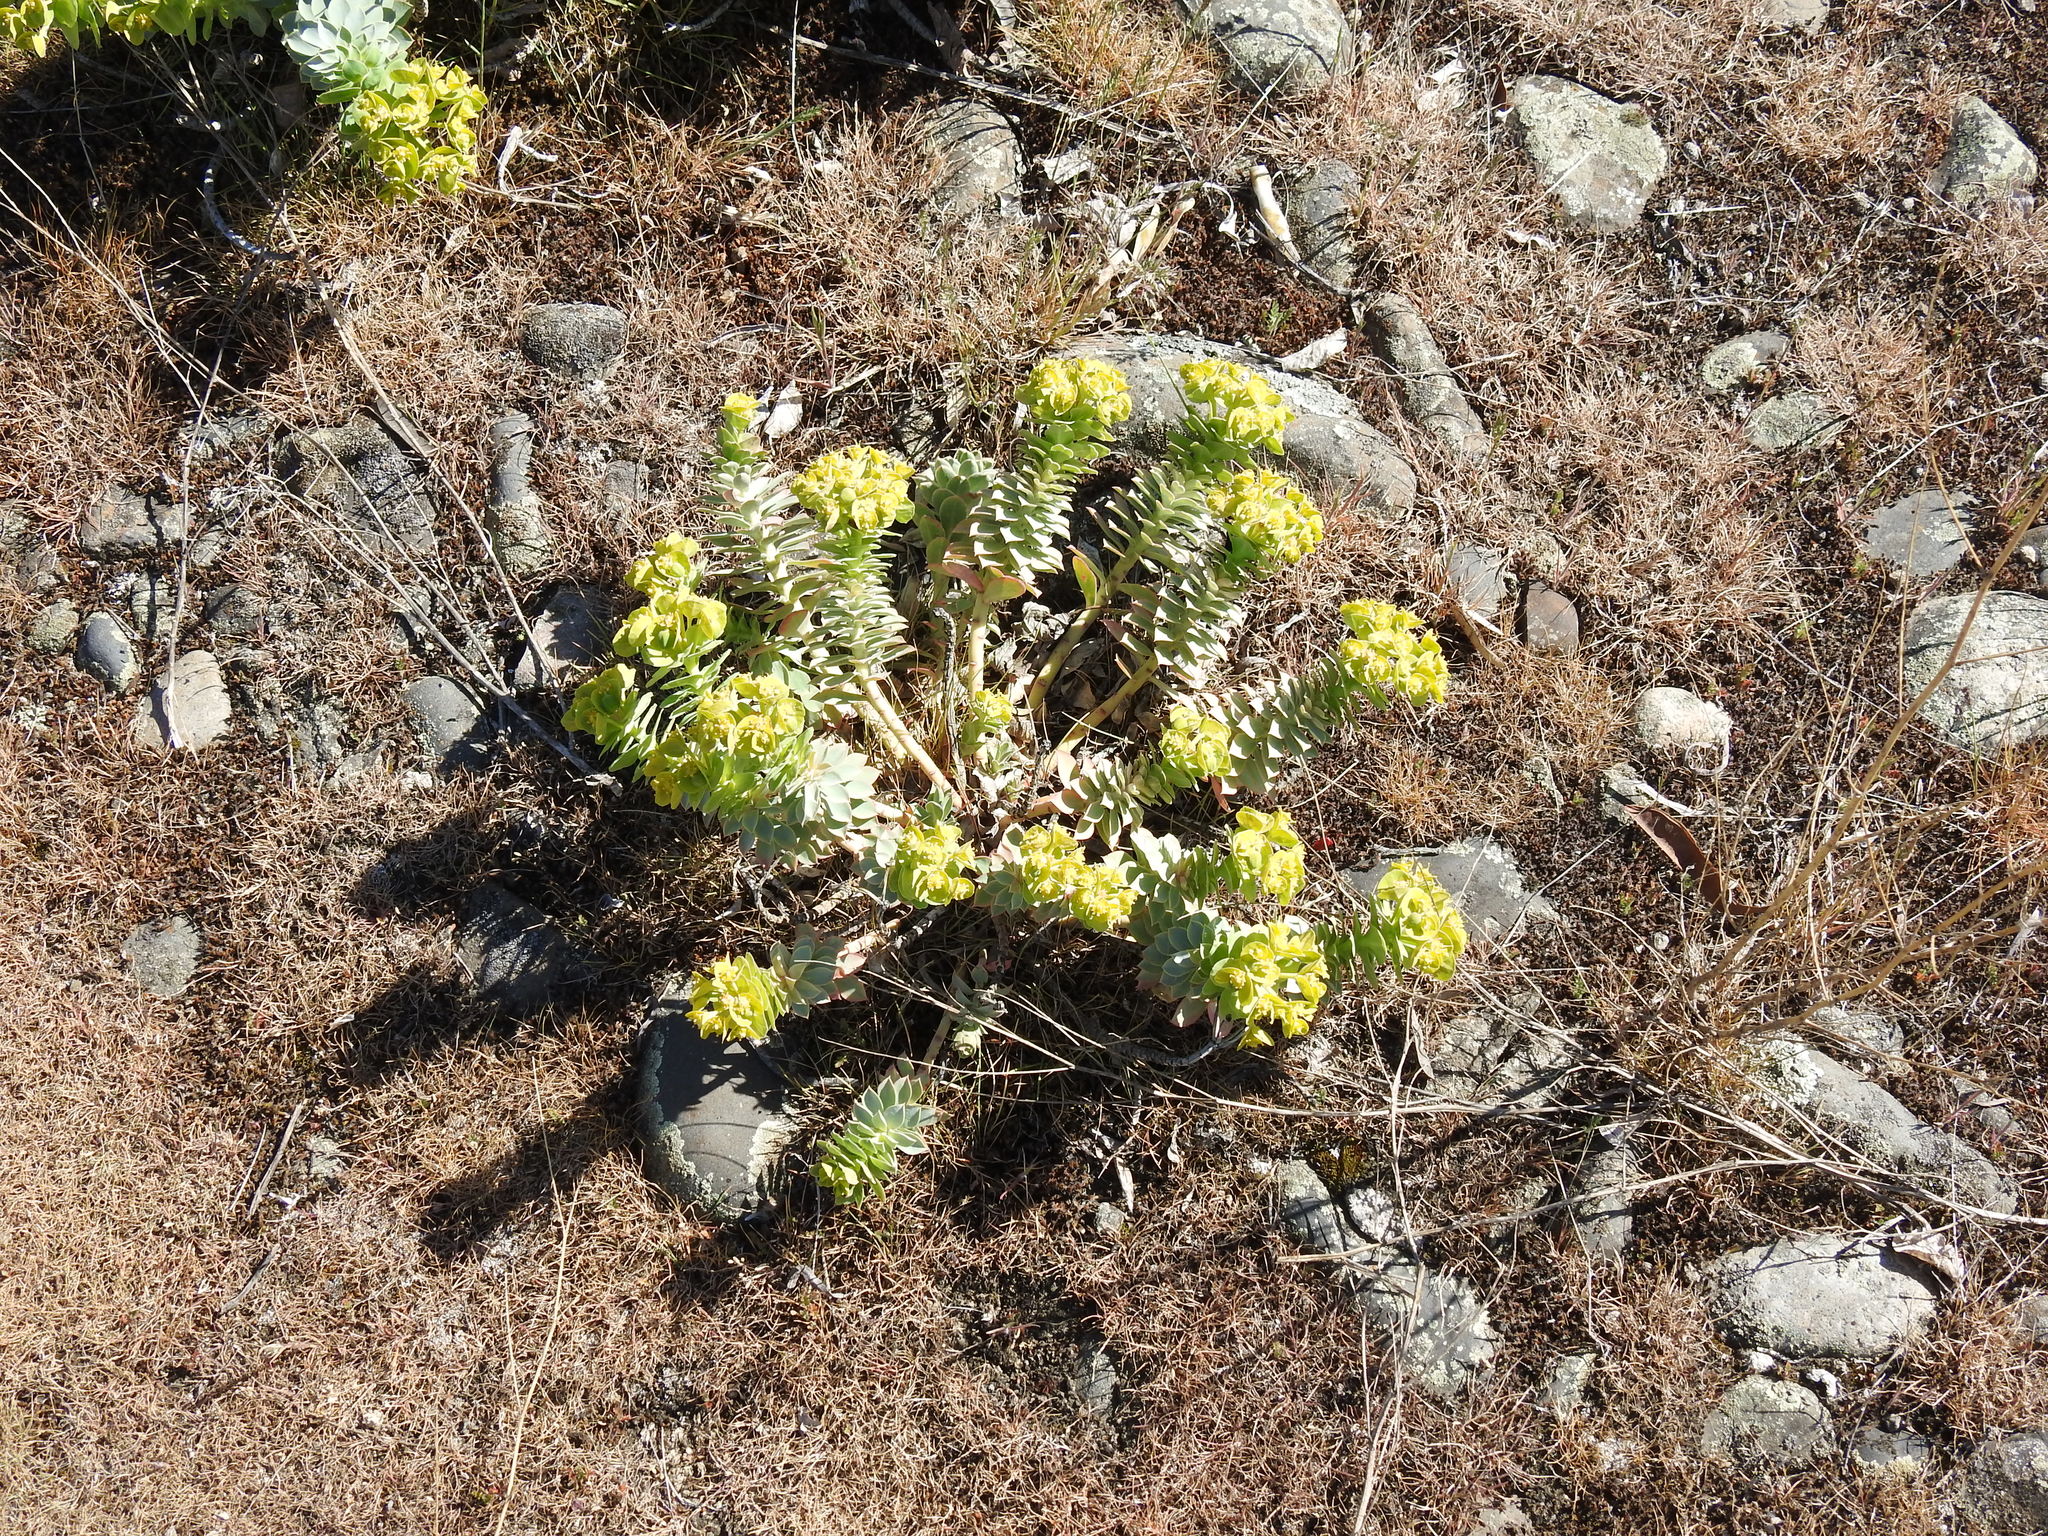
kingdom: Plantae
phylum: Tracheophyta
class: Magnoliopsida
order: Malpighiales
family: Euphorbiaceae
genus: Euphorbia
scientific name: Euphorbia myrsinites
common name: Myrtle spurge
